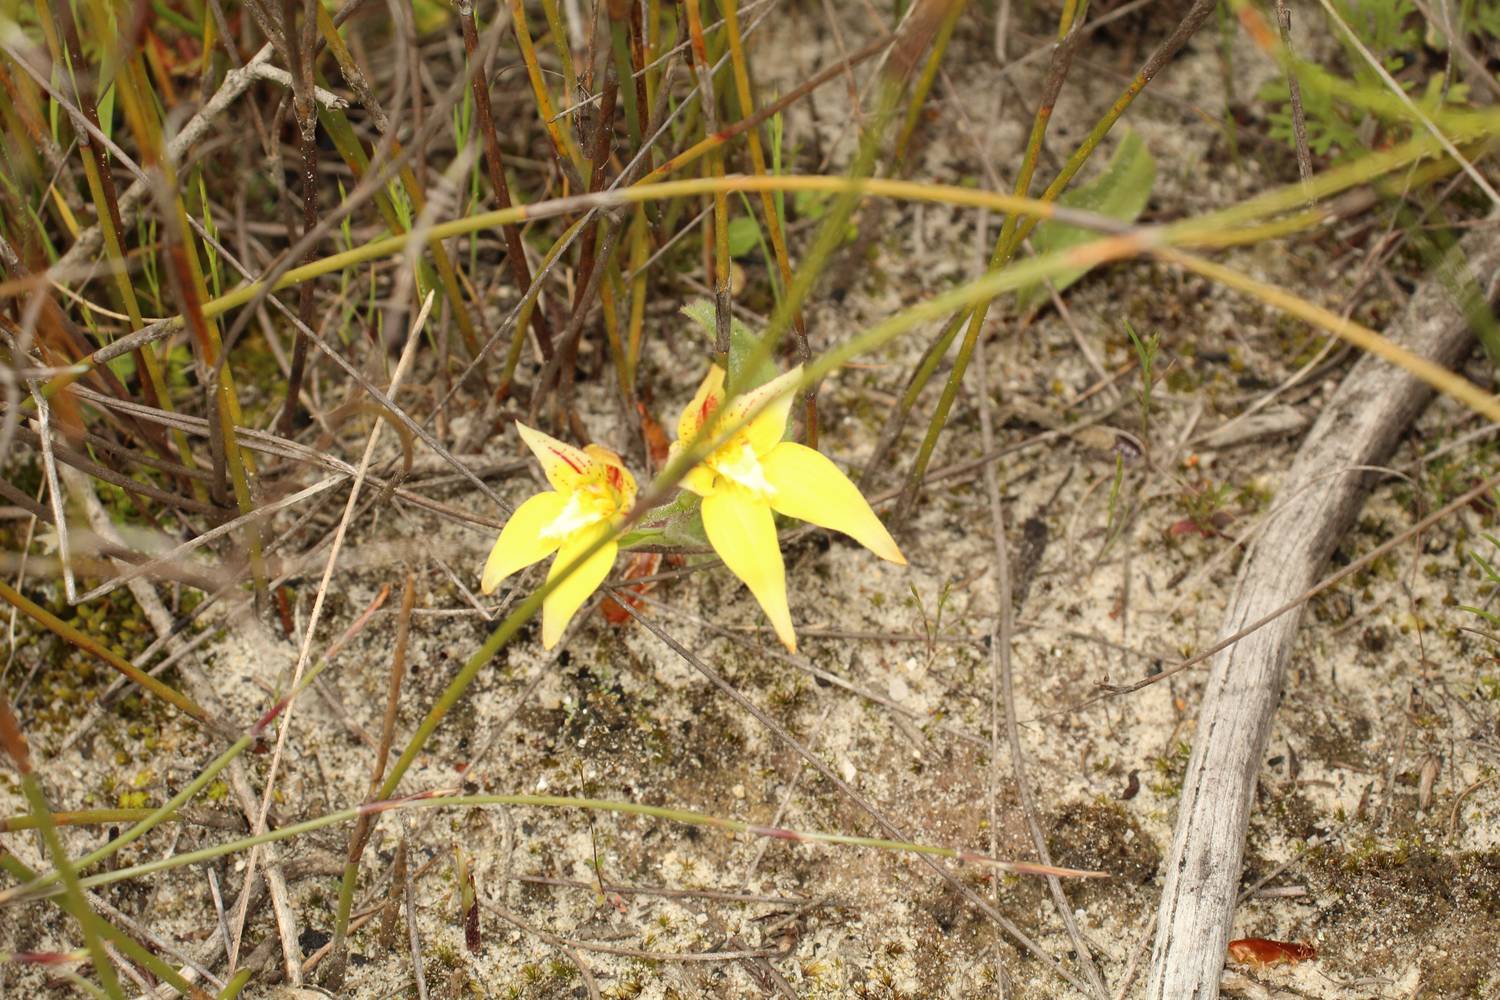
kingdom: Plantae
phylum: Tracheophyta
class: Liliopsida
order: Asparagales
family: Orchidaceae
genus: Caladenia
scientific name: Caladenia flava
